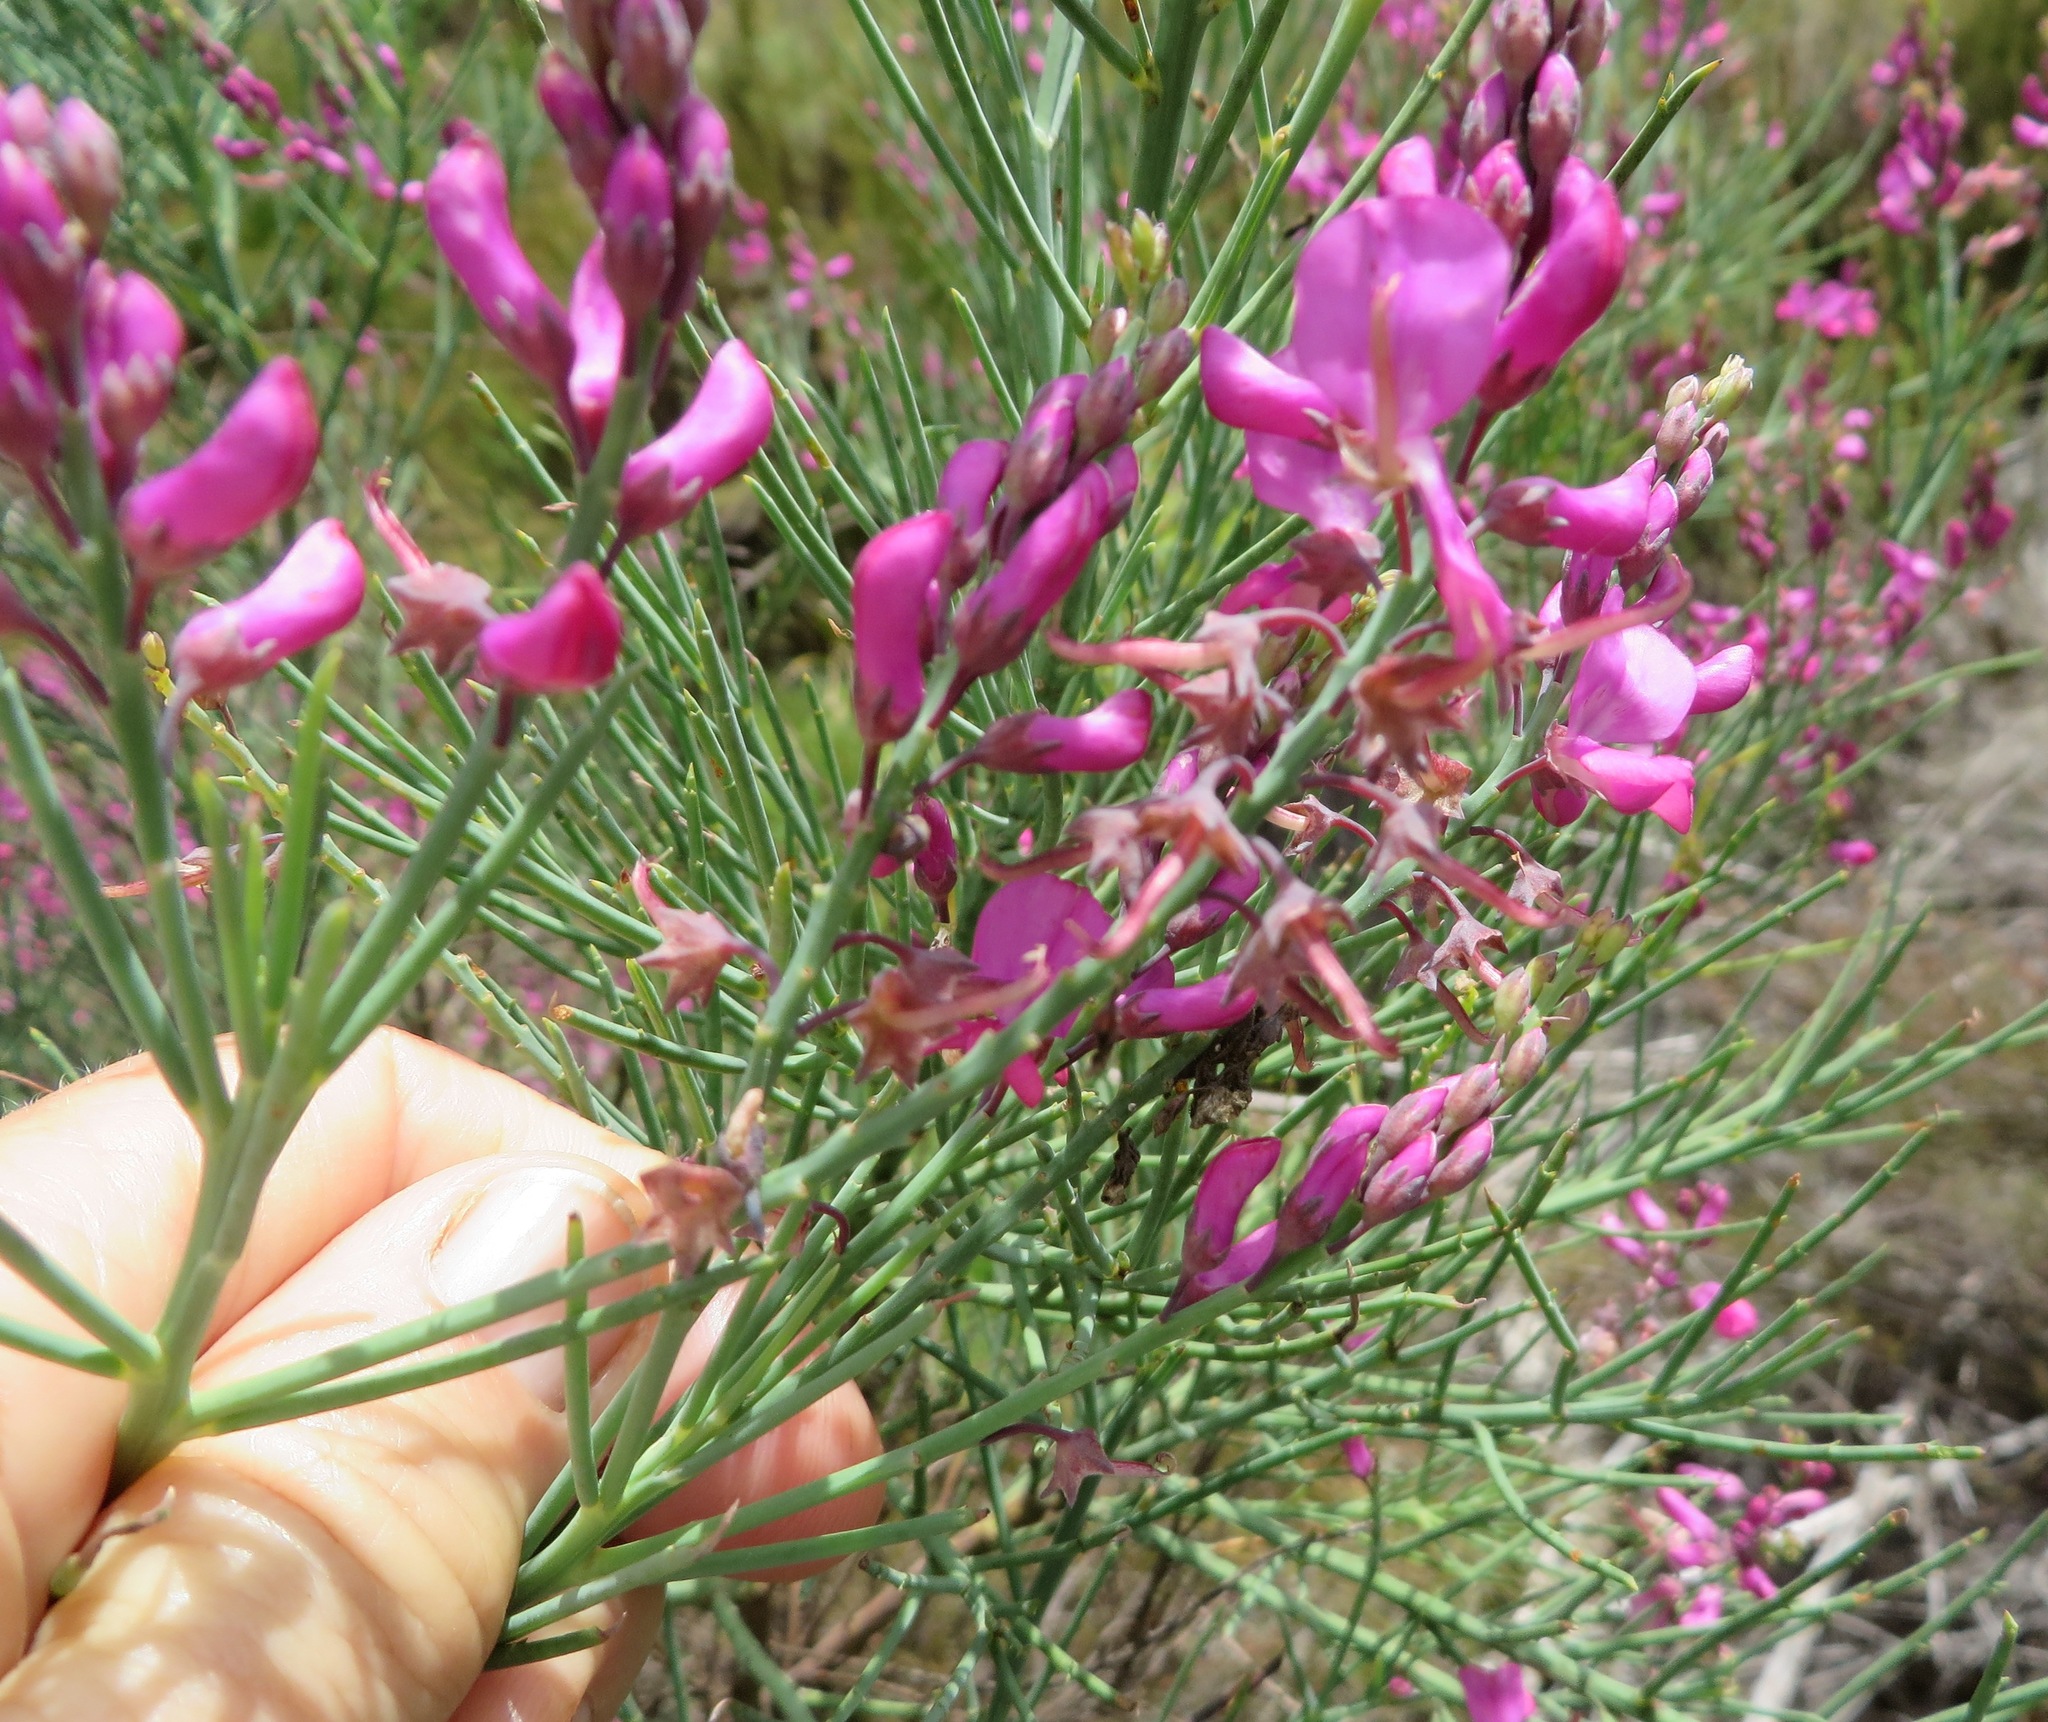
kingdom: Plantae
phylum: Tracheophyta
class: Magnoliopsida
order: Fabales
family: Fabaceae
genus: Indigofera
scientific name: Indigofera filifolia
